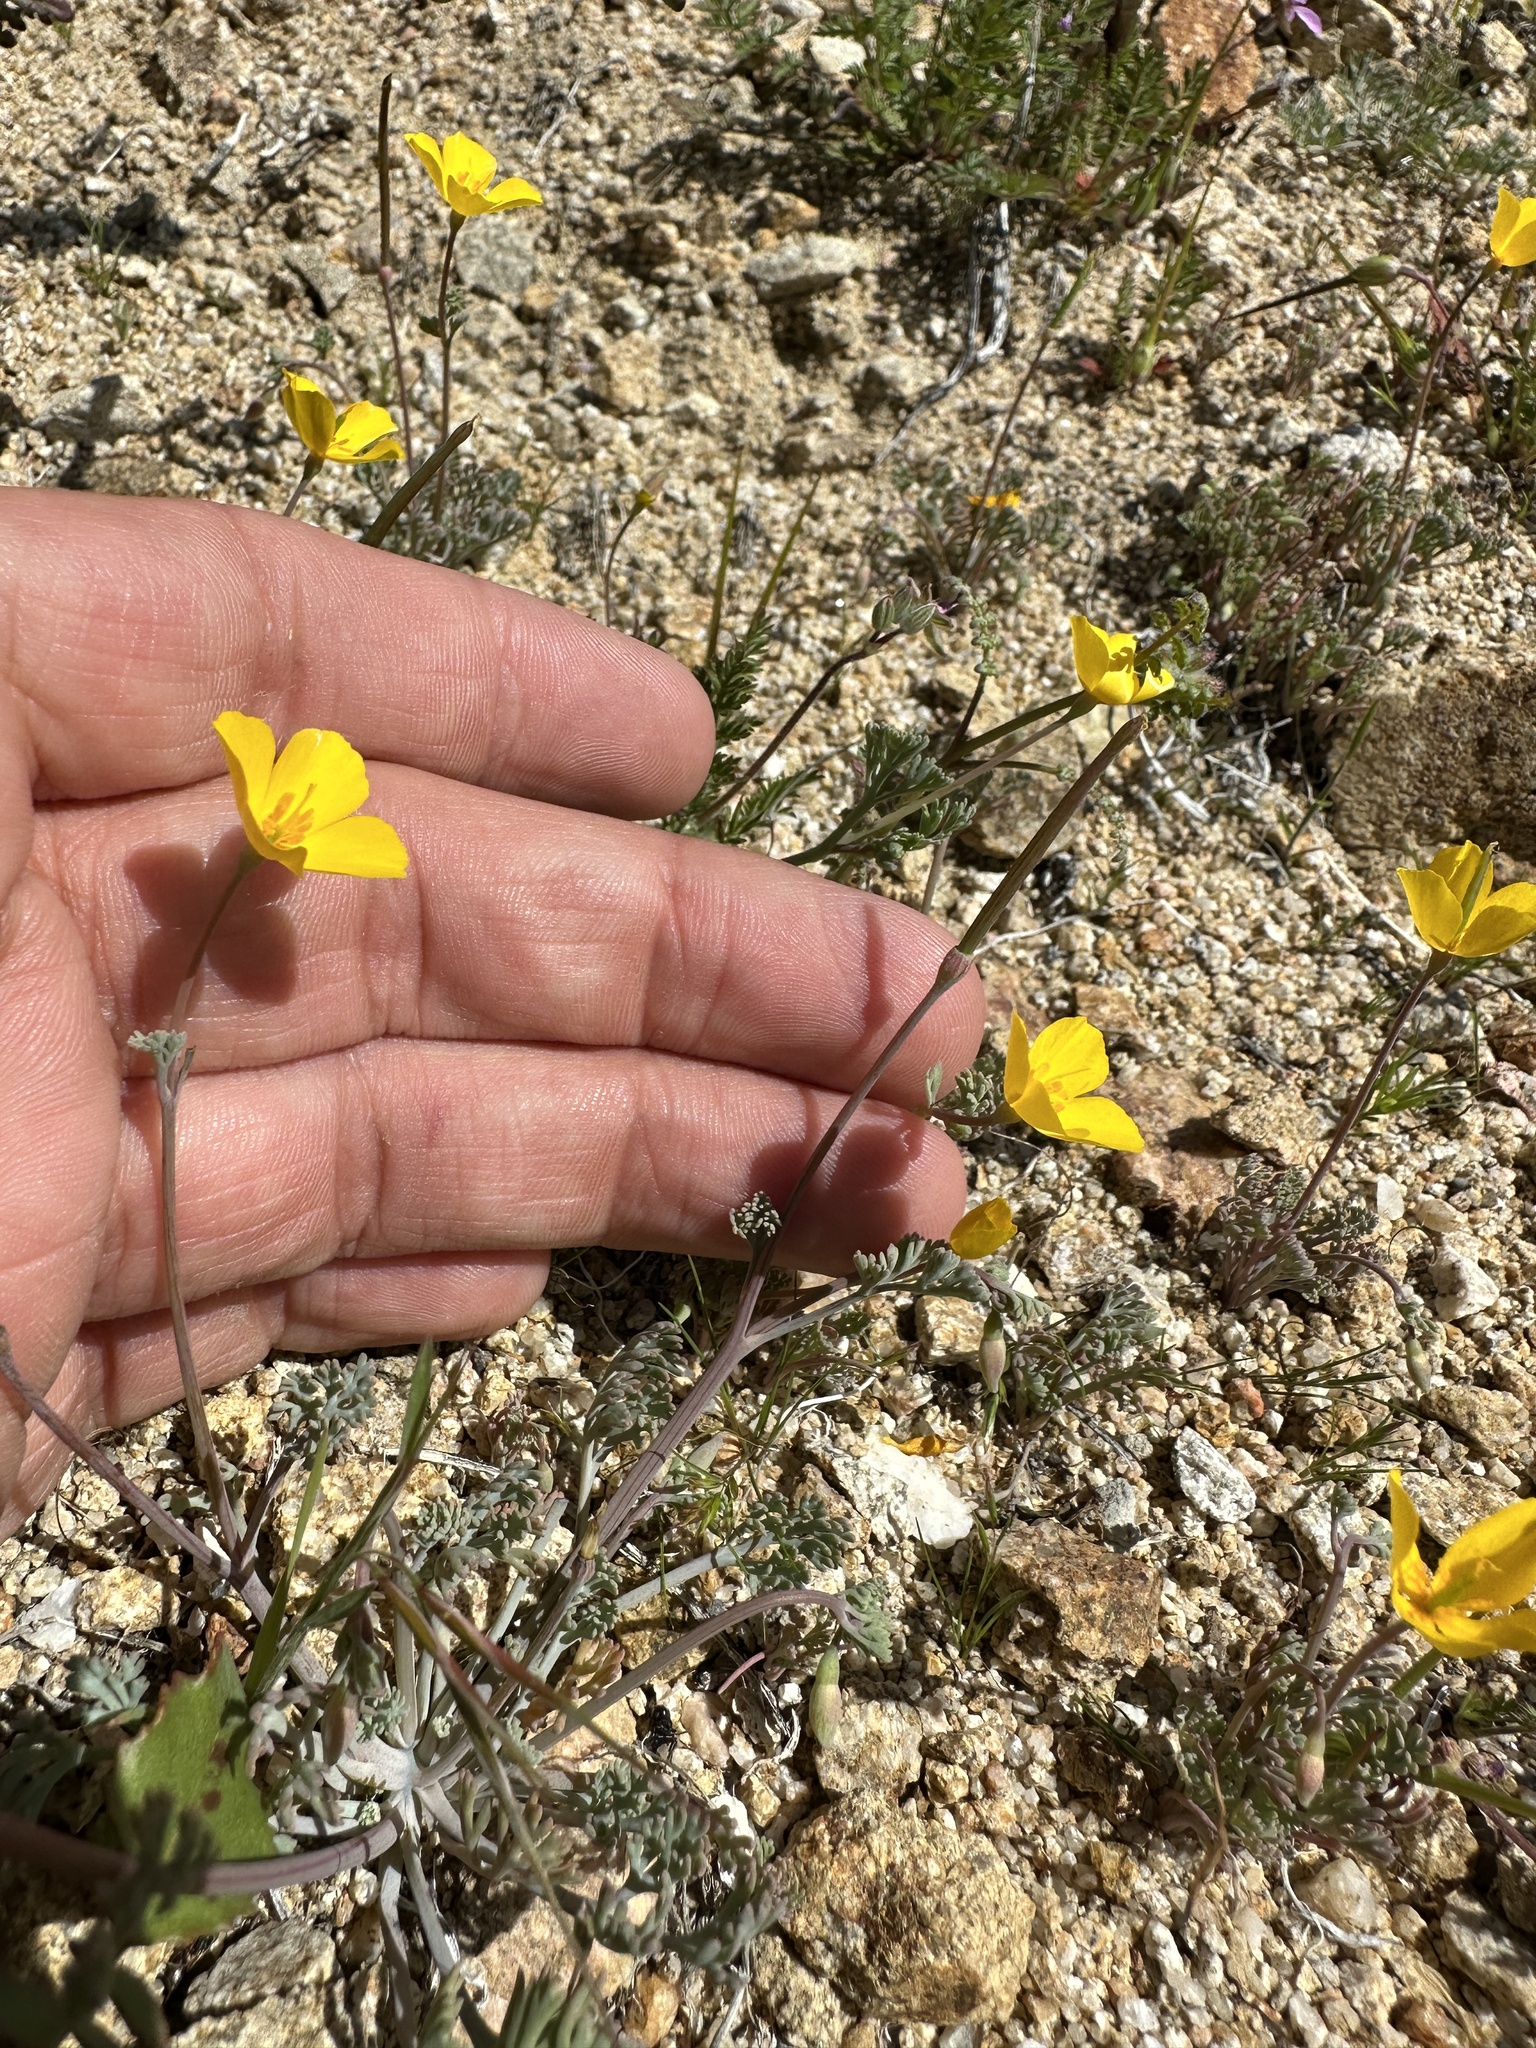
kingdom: Plantae
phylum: Tracheophyta
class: Magnoliopsida
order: Ranunculales
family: Papaveraceae
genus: Eschscholzia
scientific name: Eschscholzia minutiflora
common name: Small-flower california-poppy
